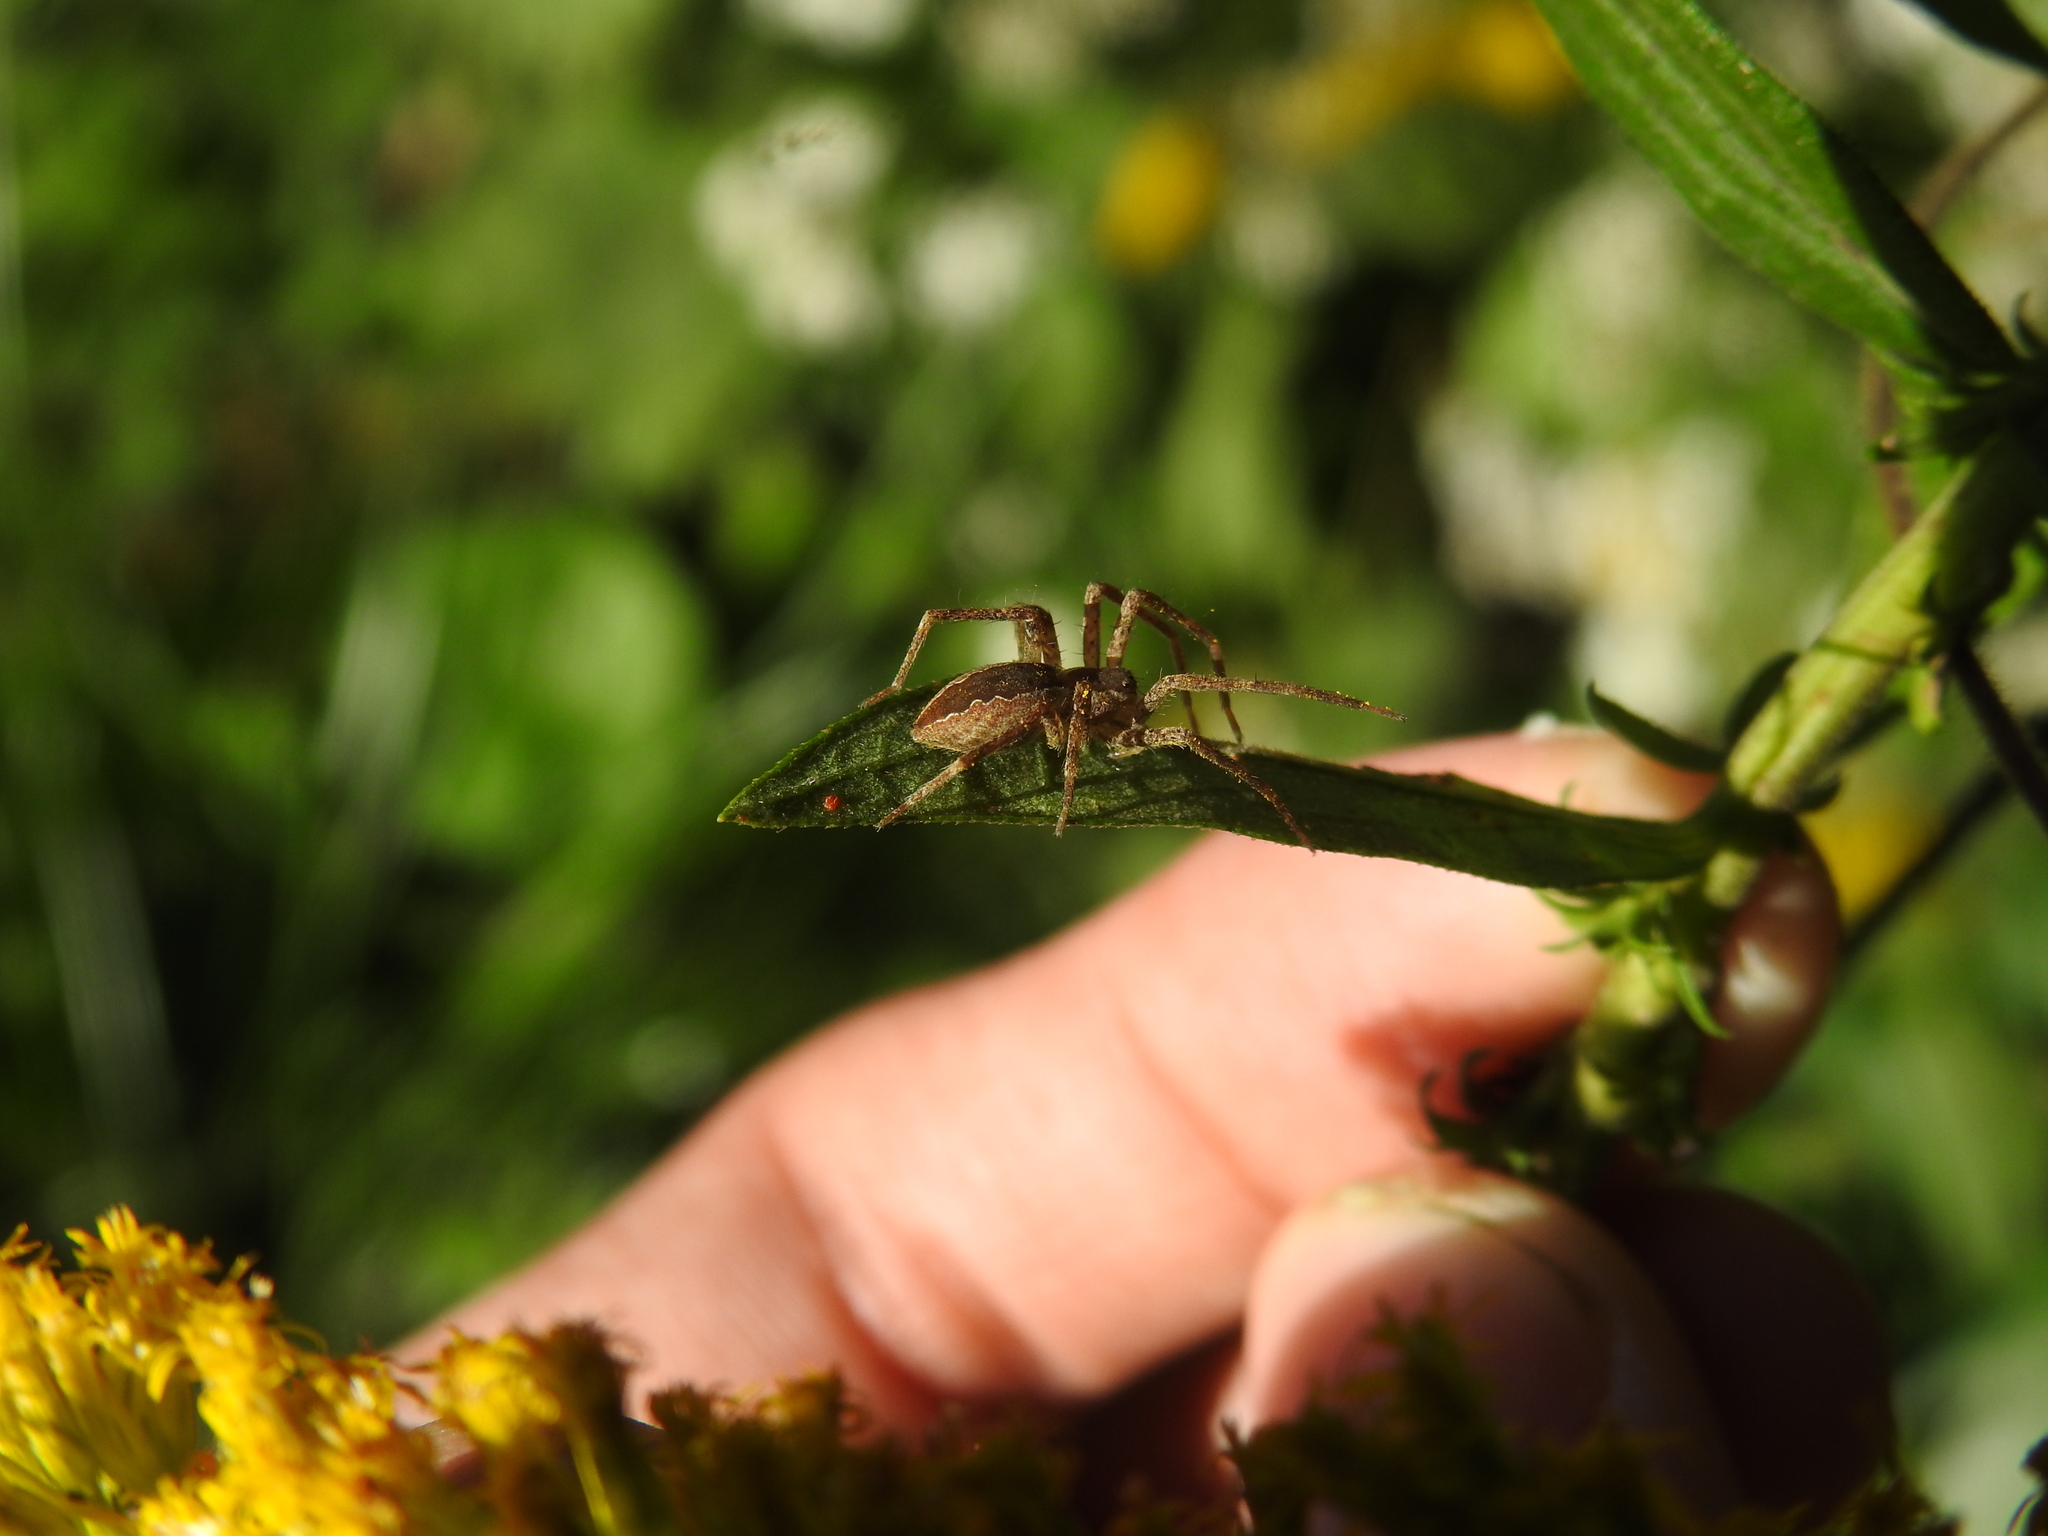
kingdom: Animalia
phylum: Arthropoda
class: Arachnida
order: Araneae
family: Pisauridae
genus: Pisaurina
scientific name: Pisaurina mira
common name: American nursery web spider
